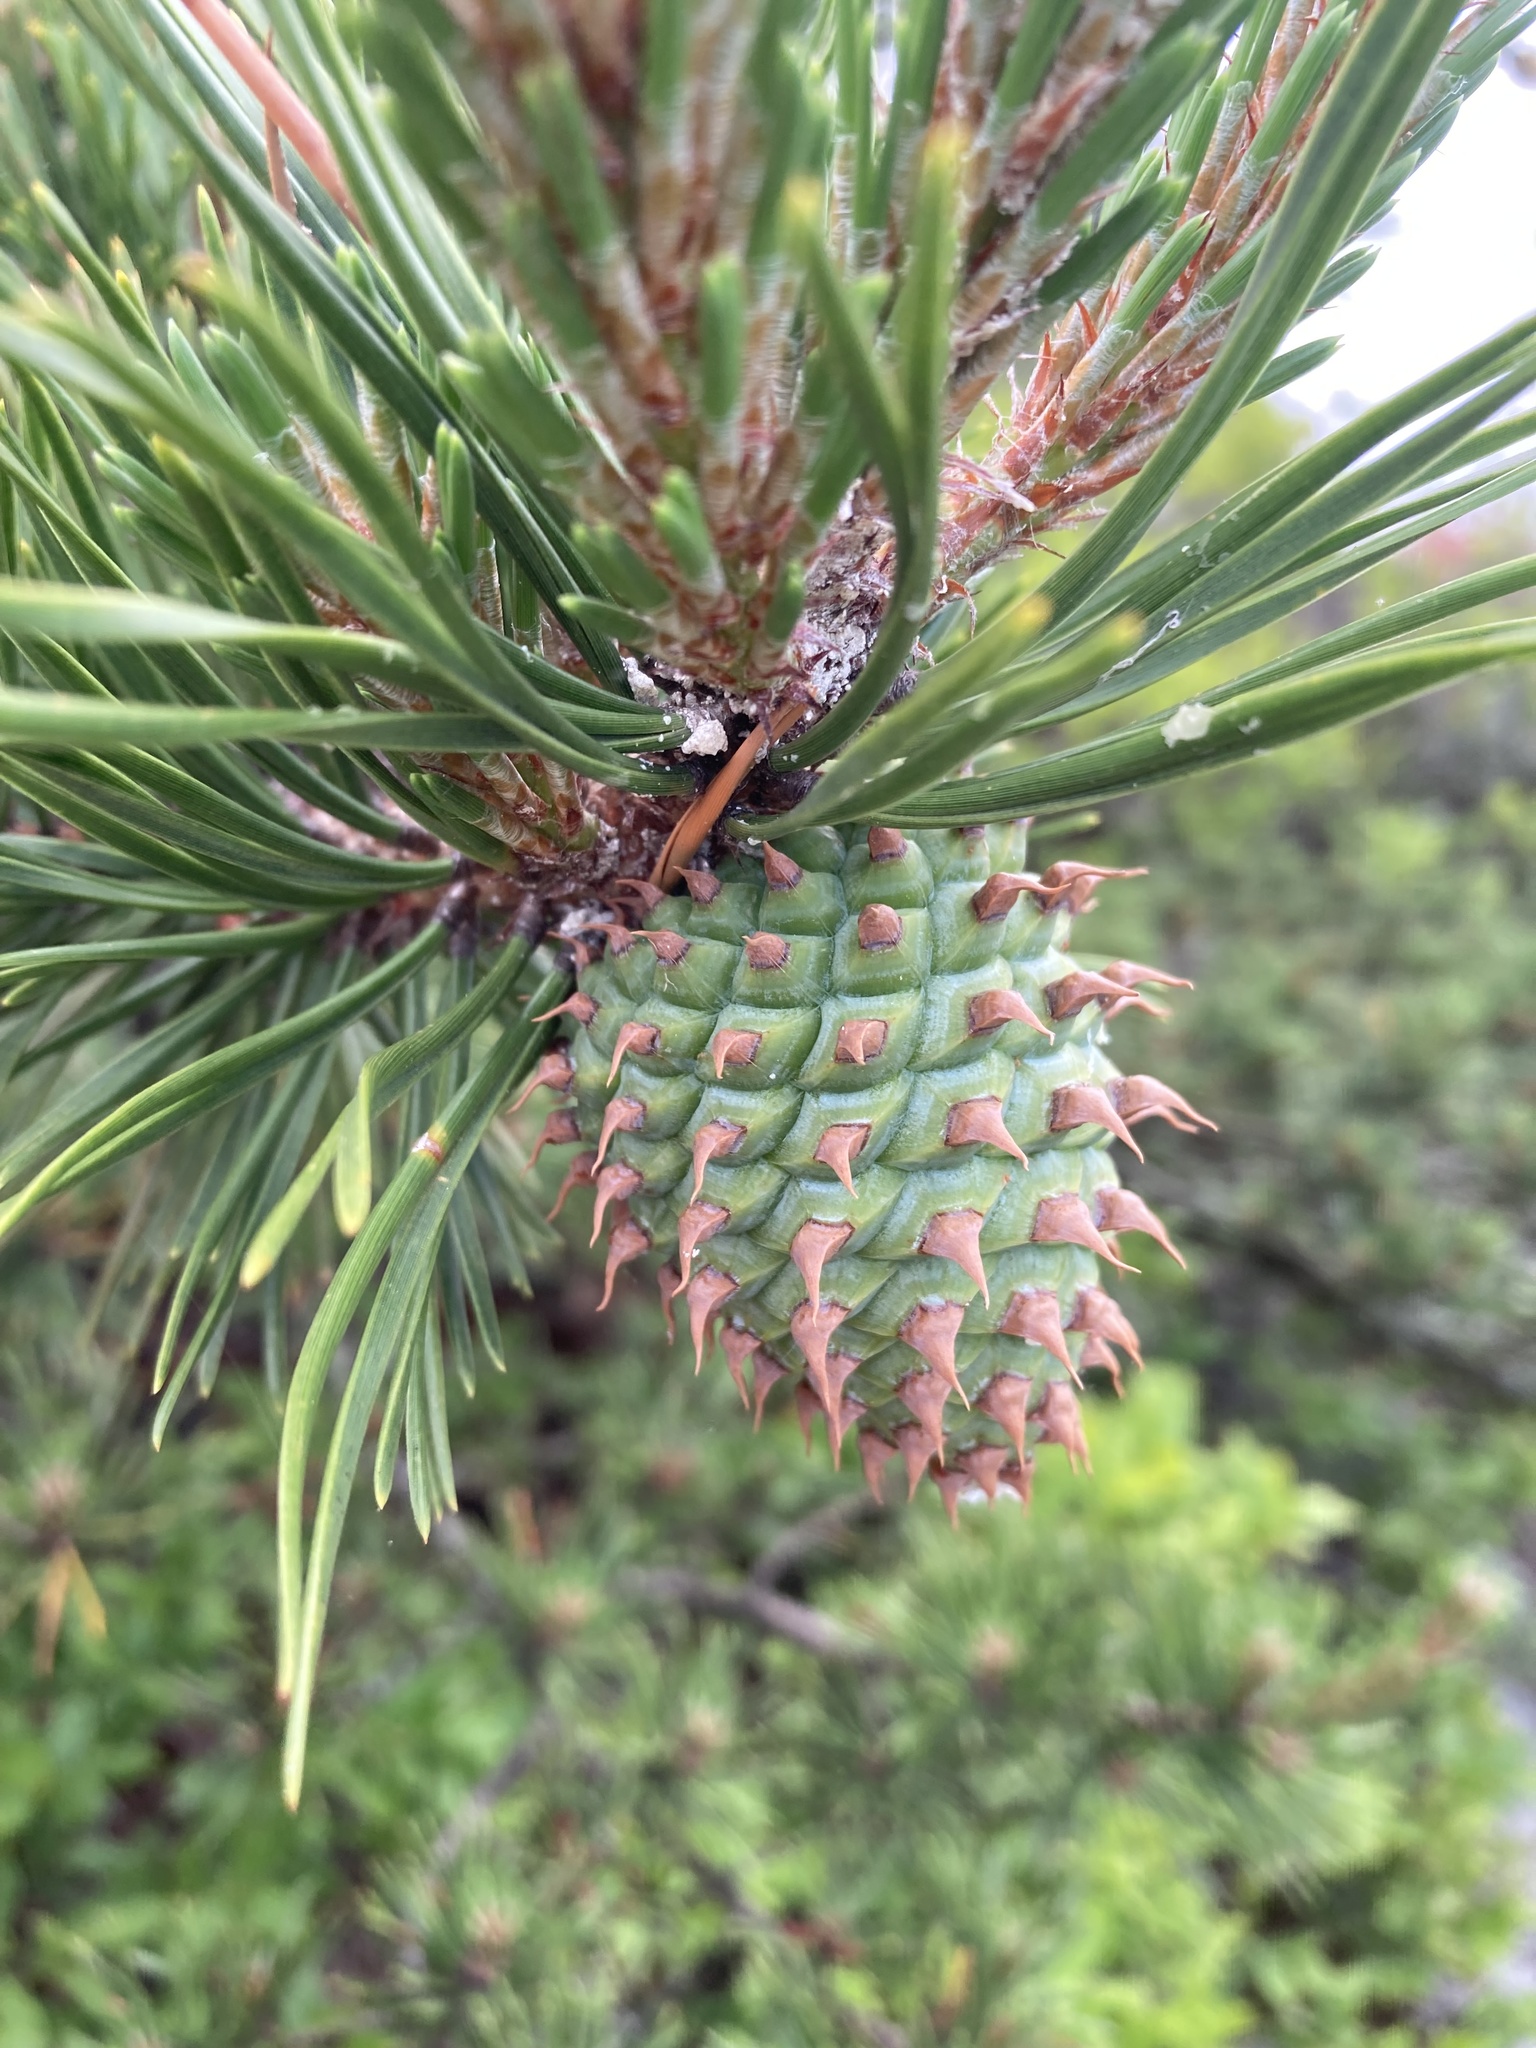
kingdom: Plantae
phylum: Tracheophyta
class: Pinopsida
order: Pinales
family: Pinaceae
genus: Pinus
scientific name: Pinus pungens
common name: Hickory pine
